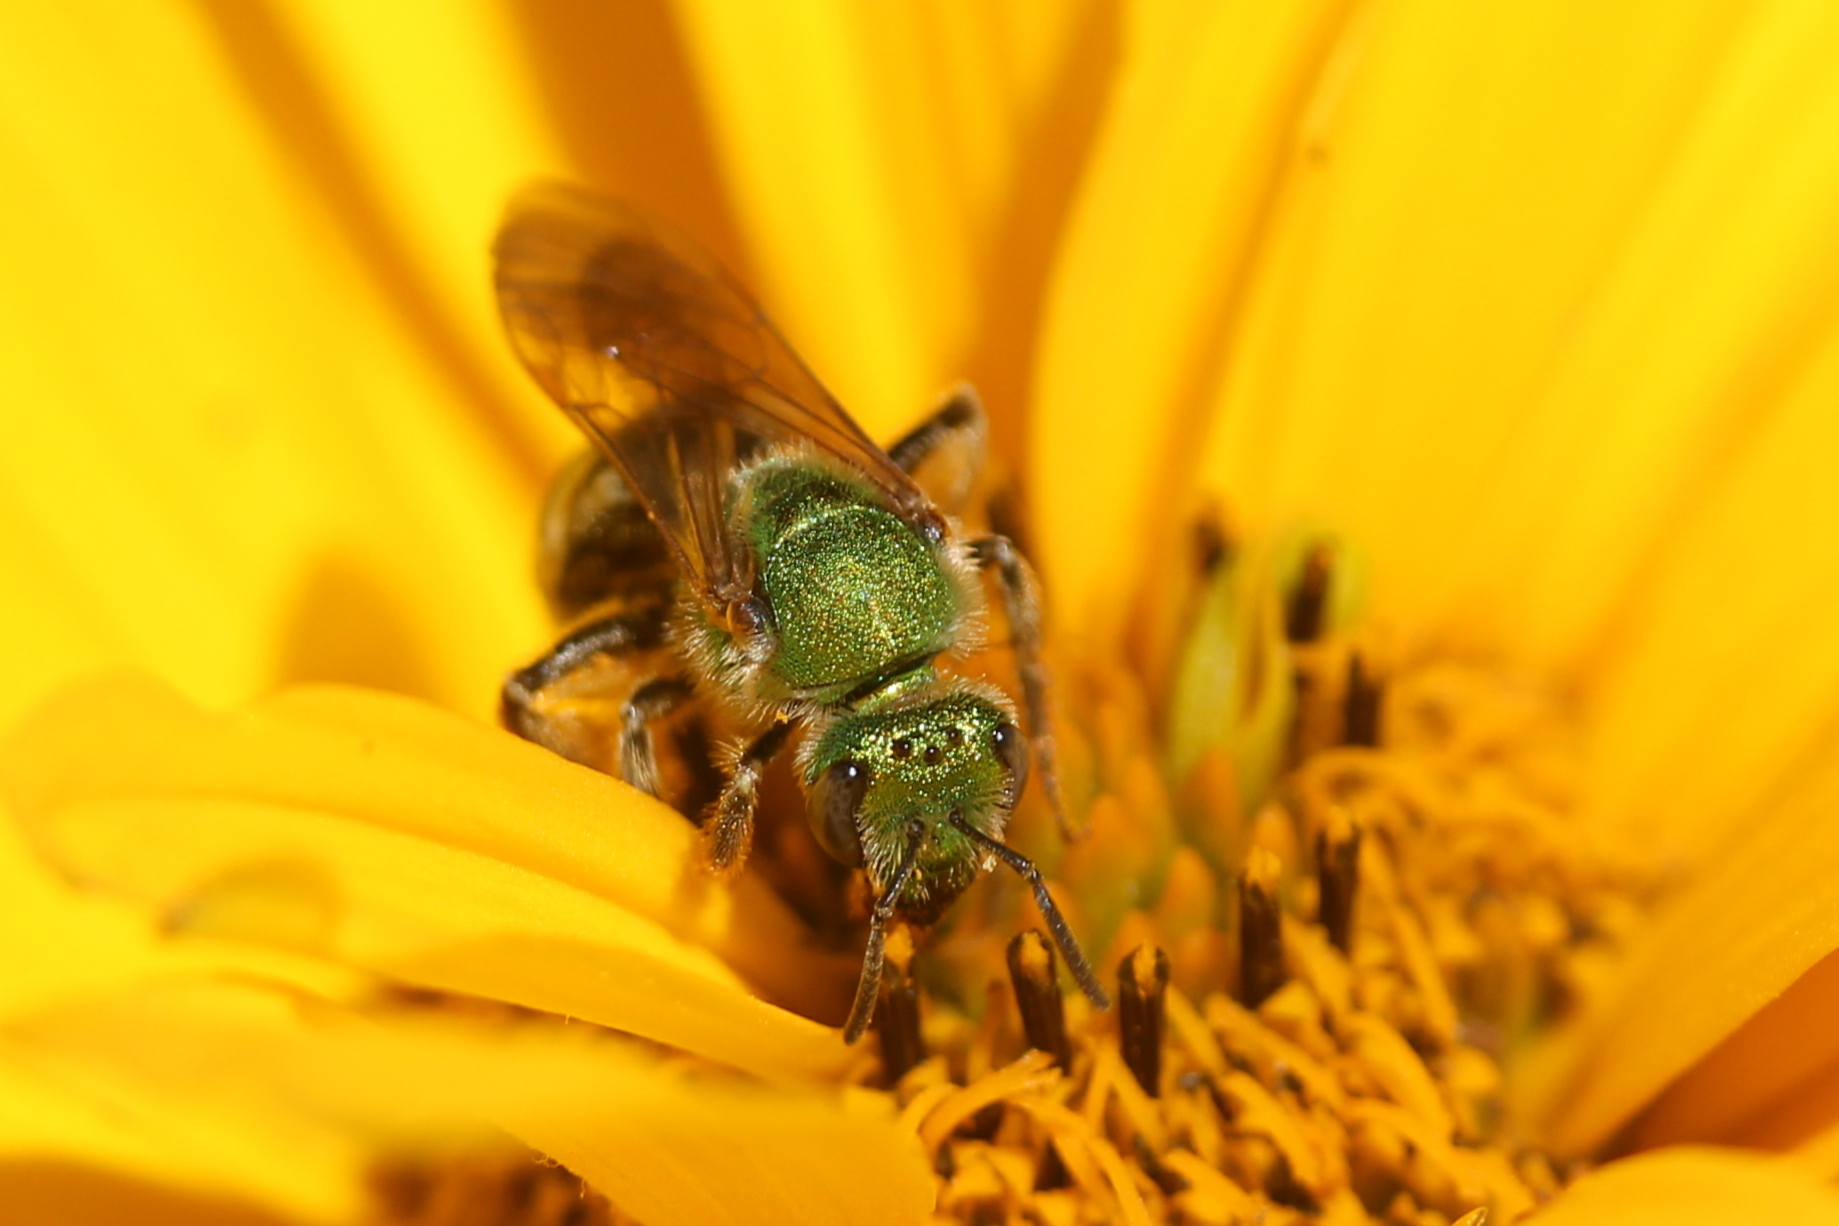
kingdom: Animalia
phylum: Arthropoda
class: Insecta
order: Hymenoptera
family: Halictidae
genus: Agapostemon
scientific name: Agapostemon virescens
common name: Bicolored striped sweat bee
